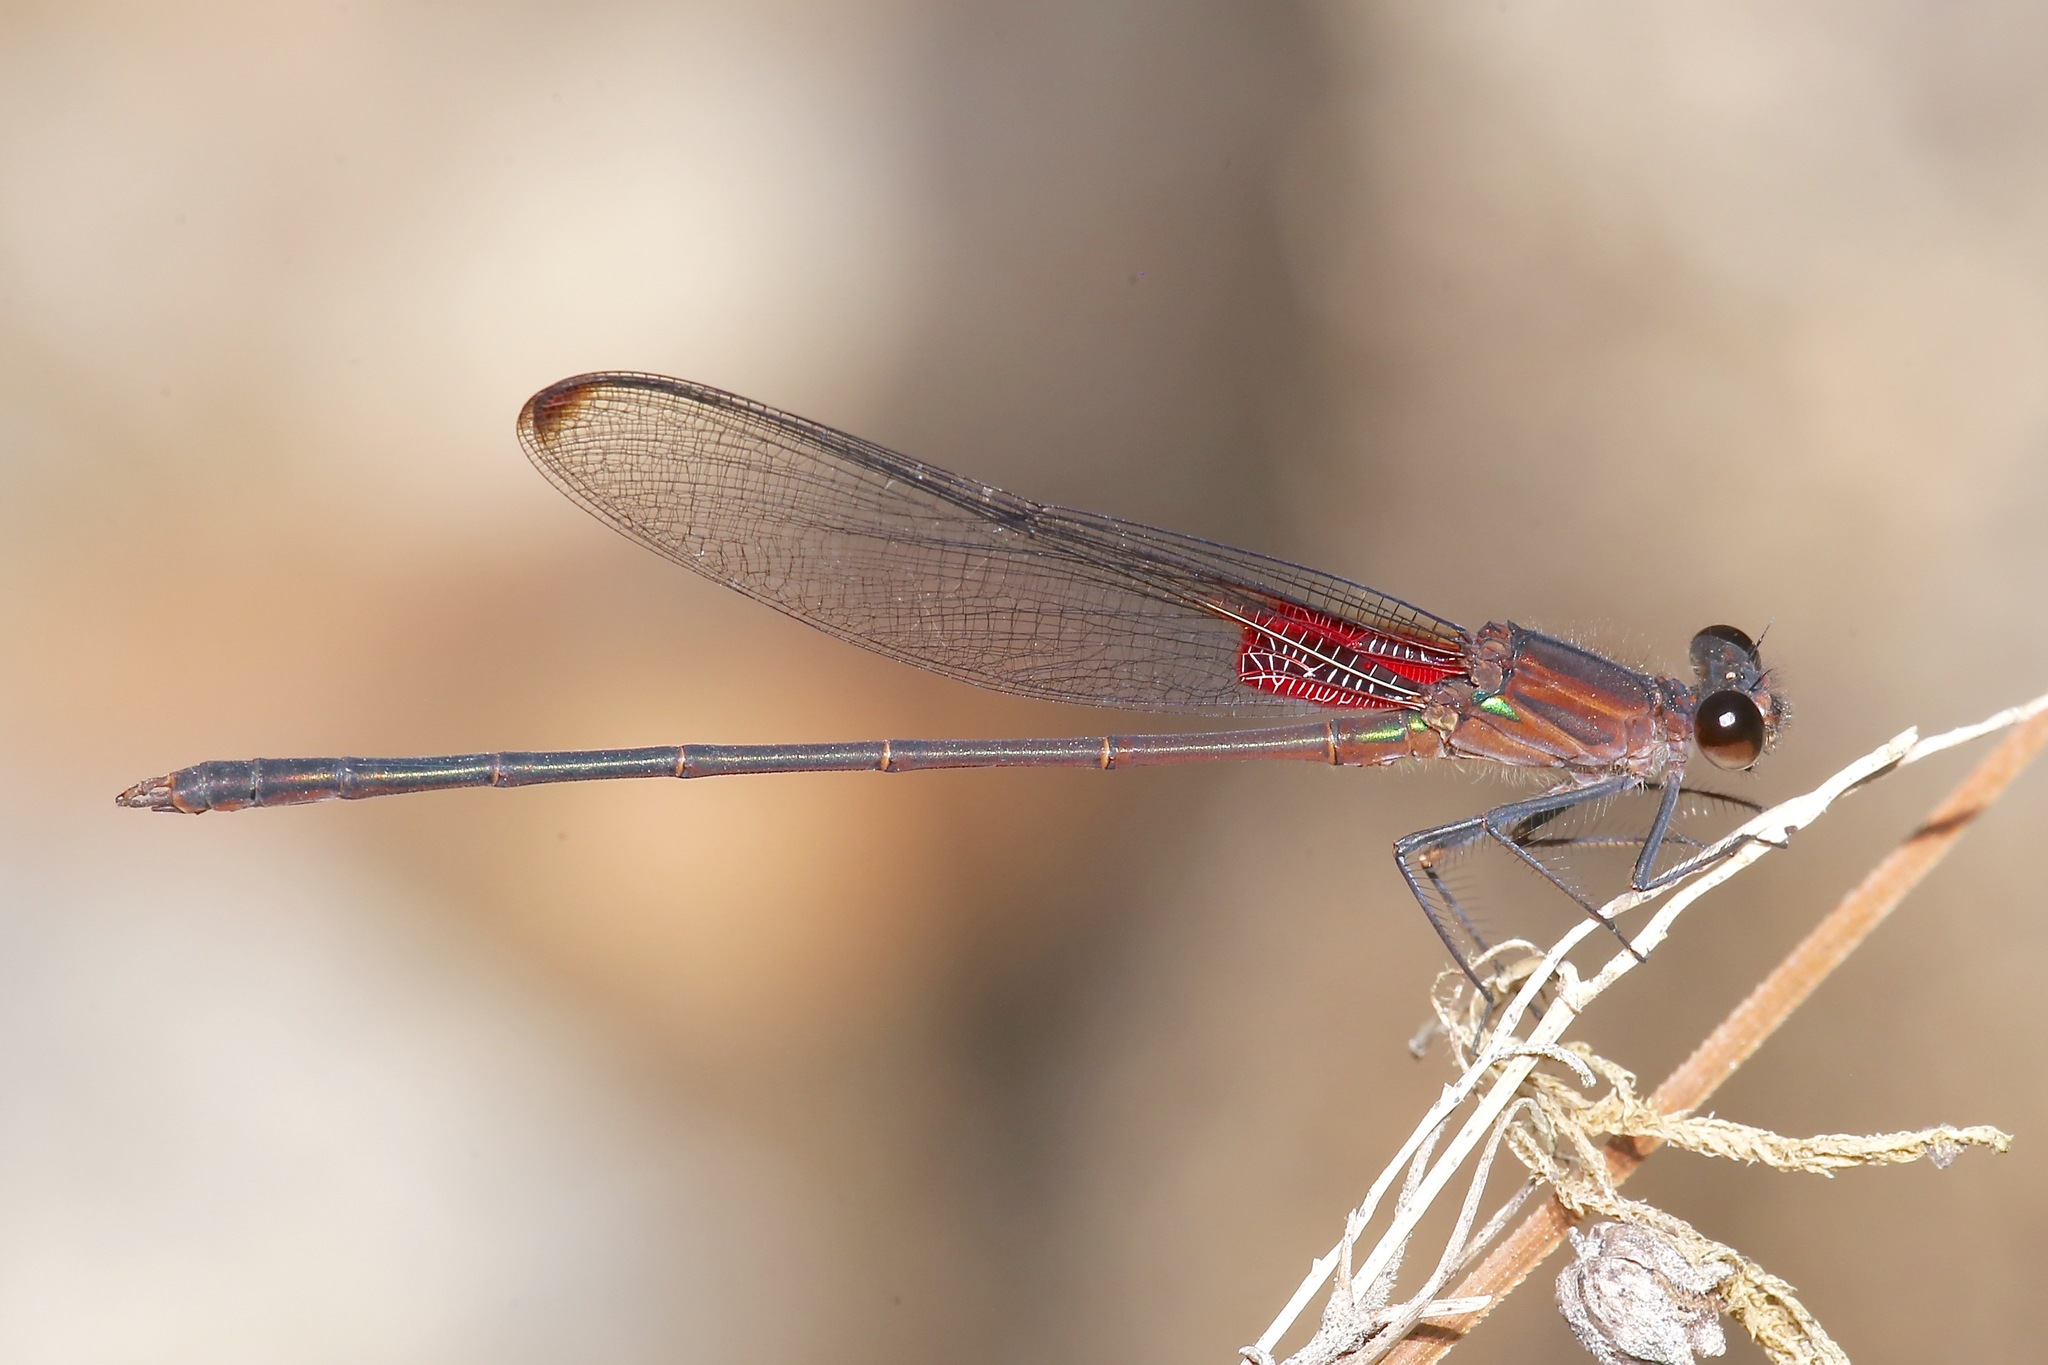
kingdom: Animalia
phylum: Arthropoda
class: Insecta
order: Odonata
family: Calopterygidae
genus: Hetaerina
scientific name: Hetaerina cruentata
